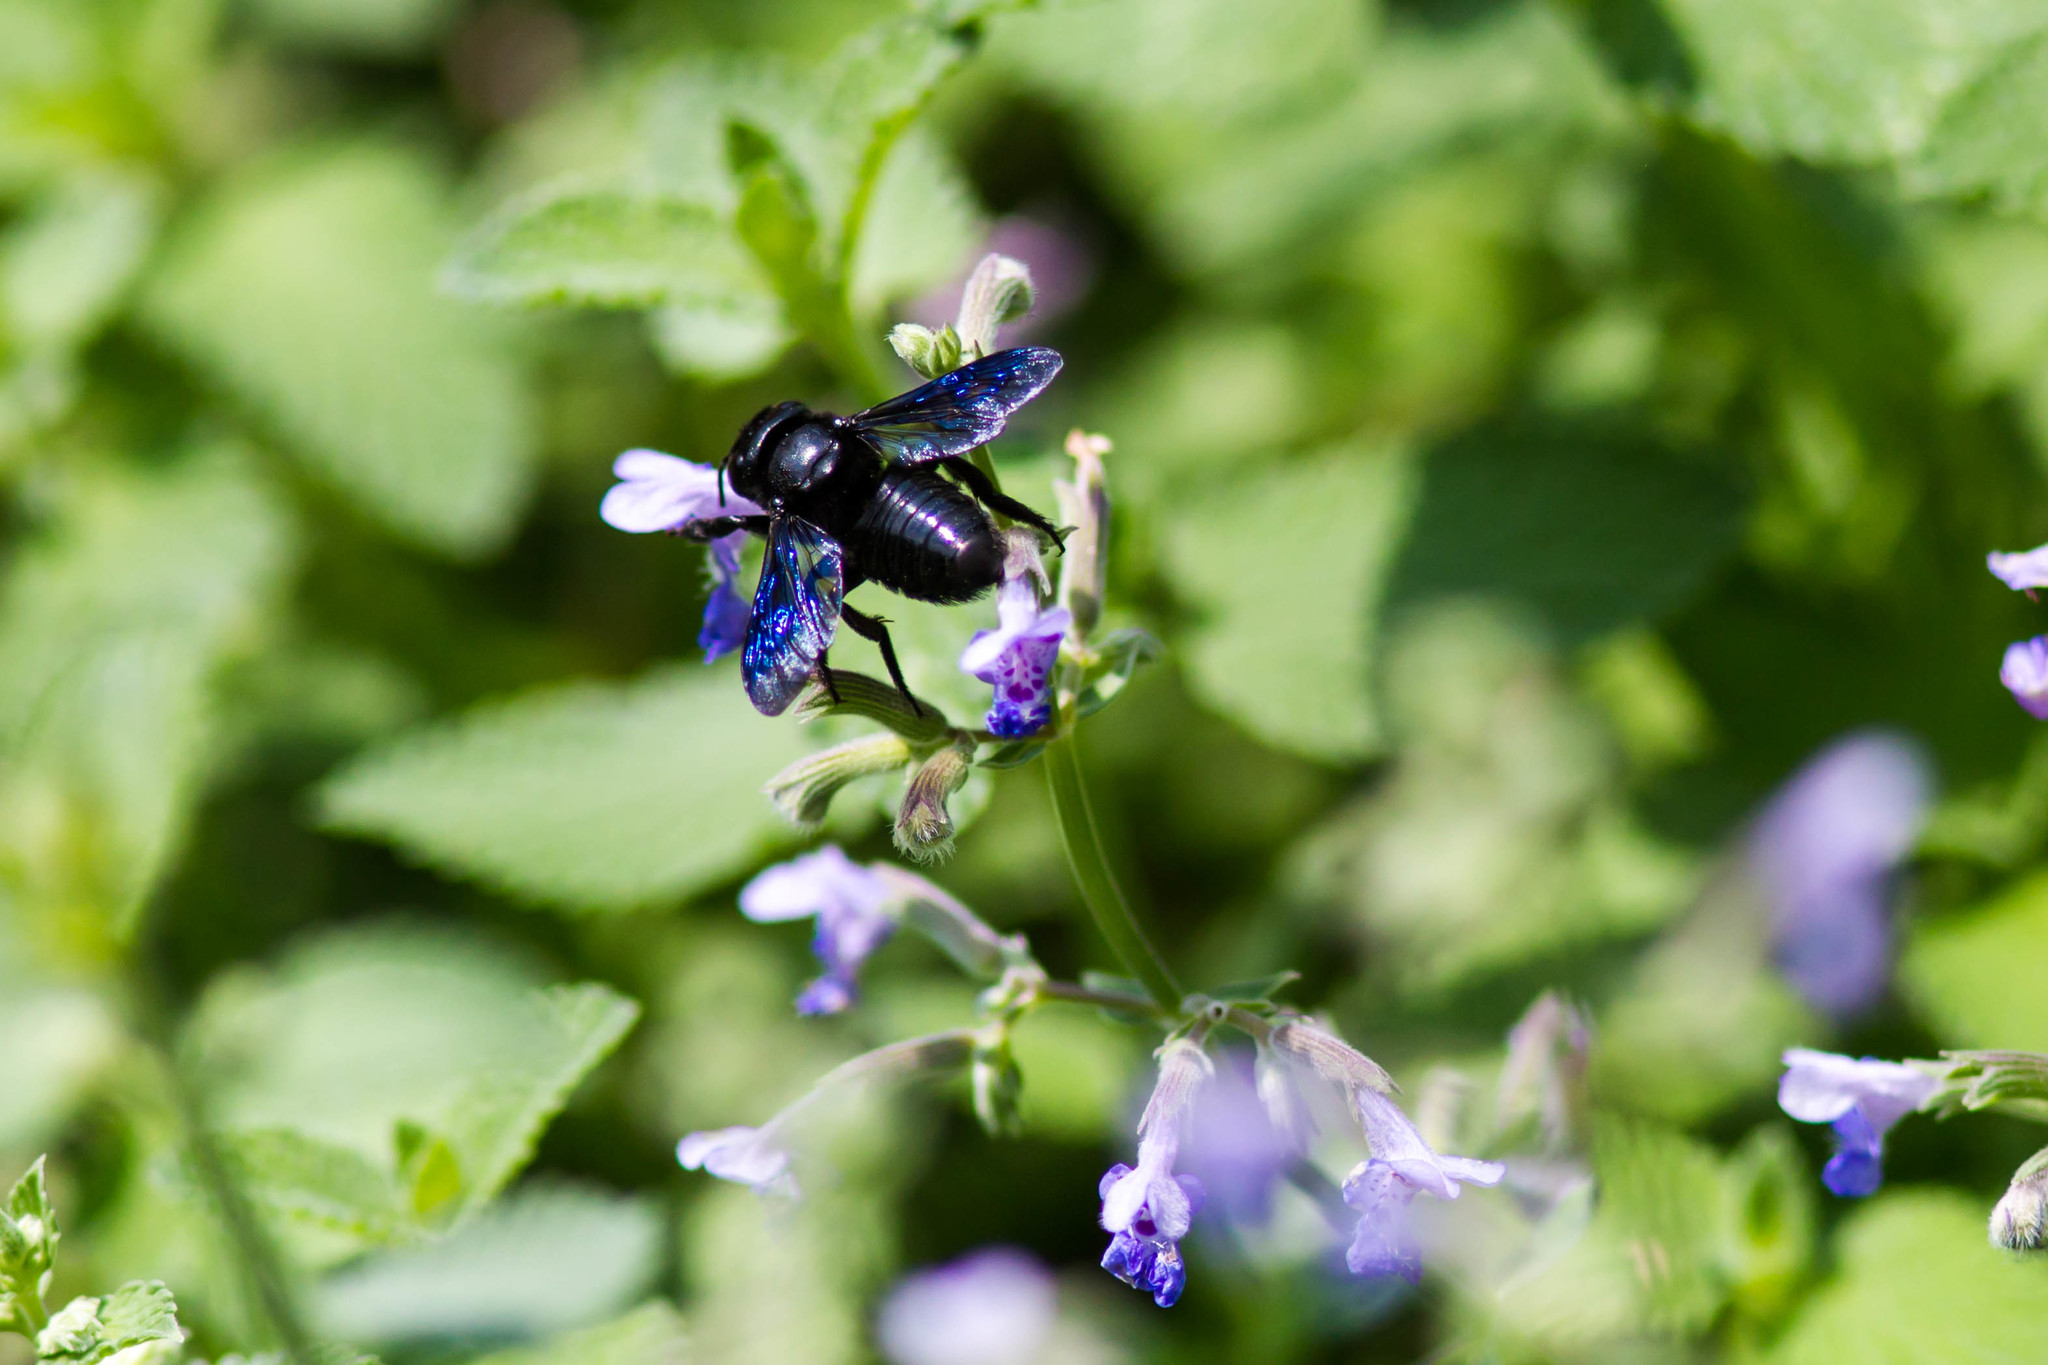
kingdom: Animalia
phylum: Arthropoda
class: Insecta
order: Hymenoptera
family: Megachilidae
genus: Megachile
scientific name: Megachile xylocopoides
